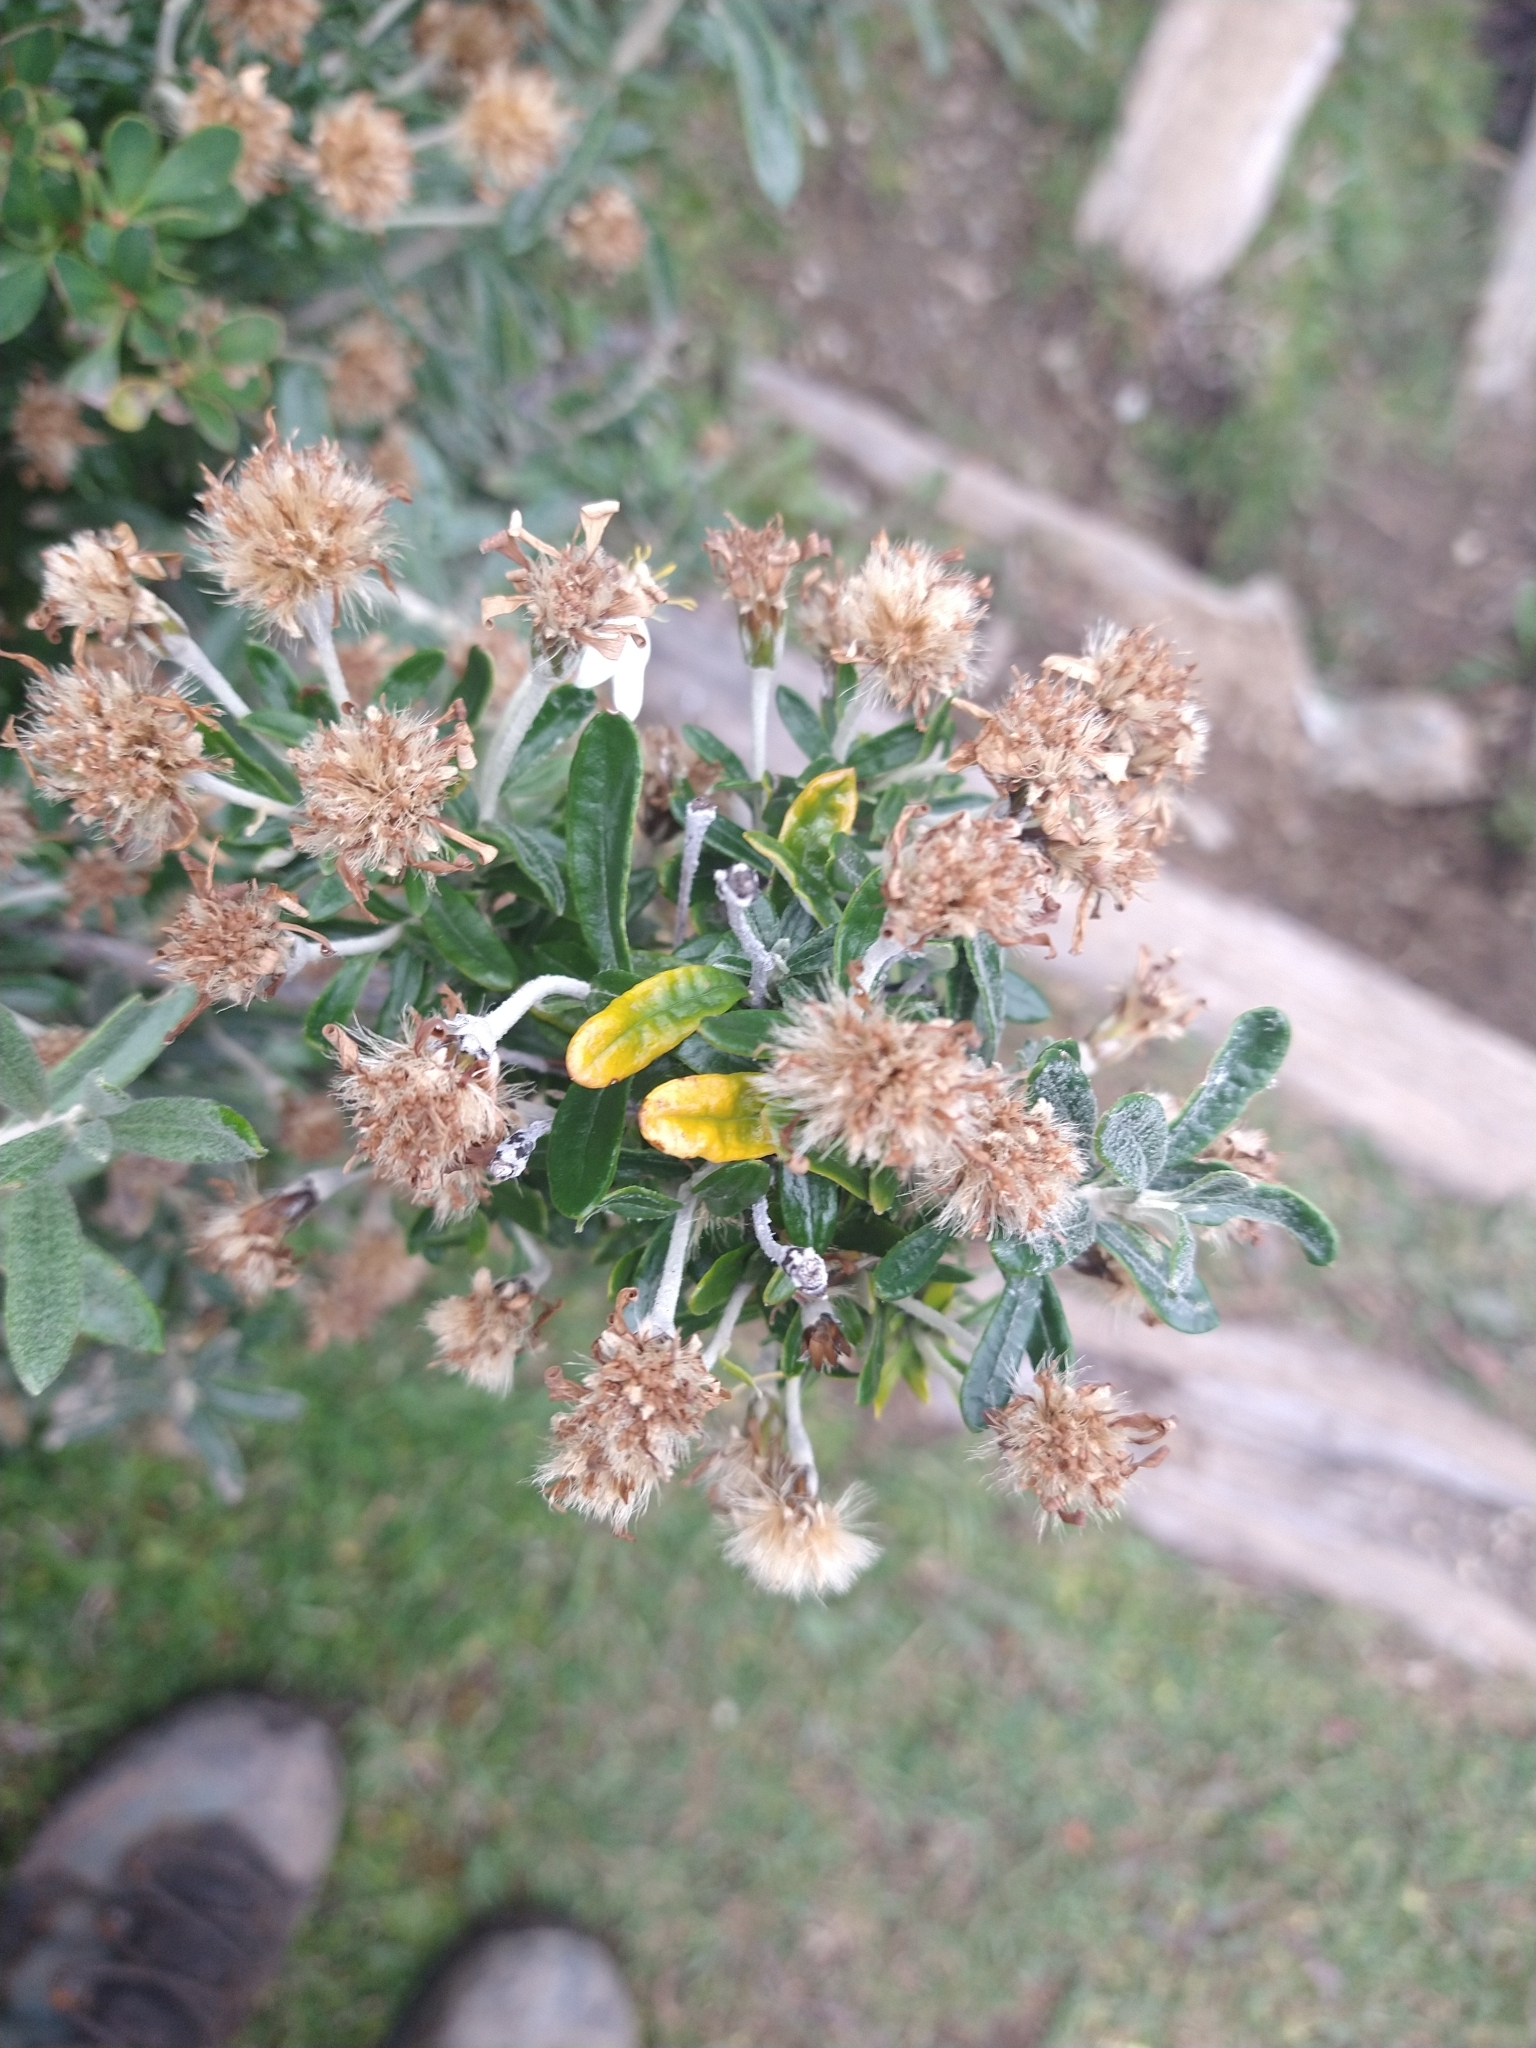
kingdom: Plantae
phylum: Tracheophyta
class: Magnoliopsida
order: Asterales
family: Asteraceae
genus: Chiliotrichum
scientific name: Chiliotrichum diffusum
